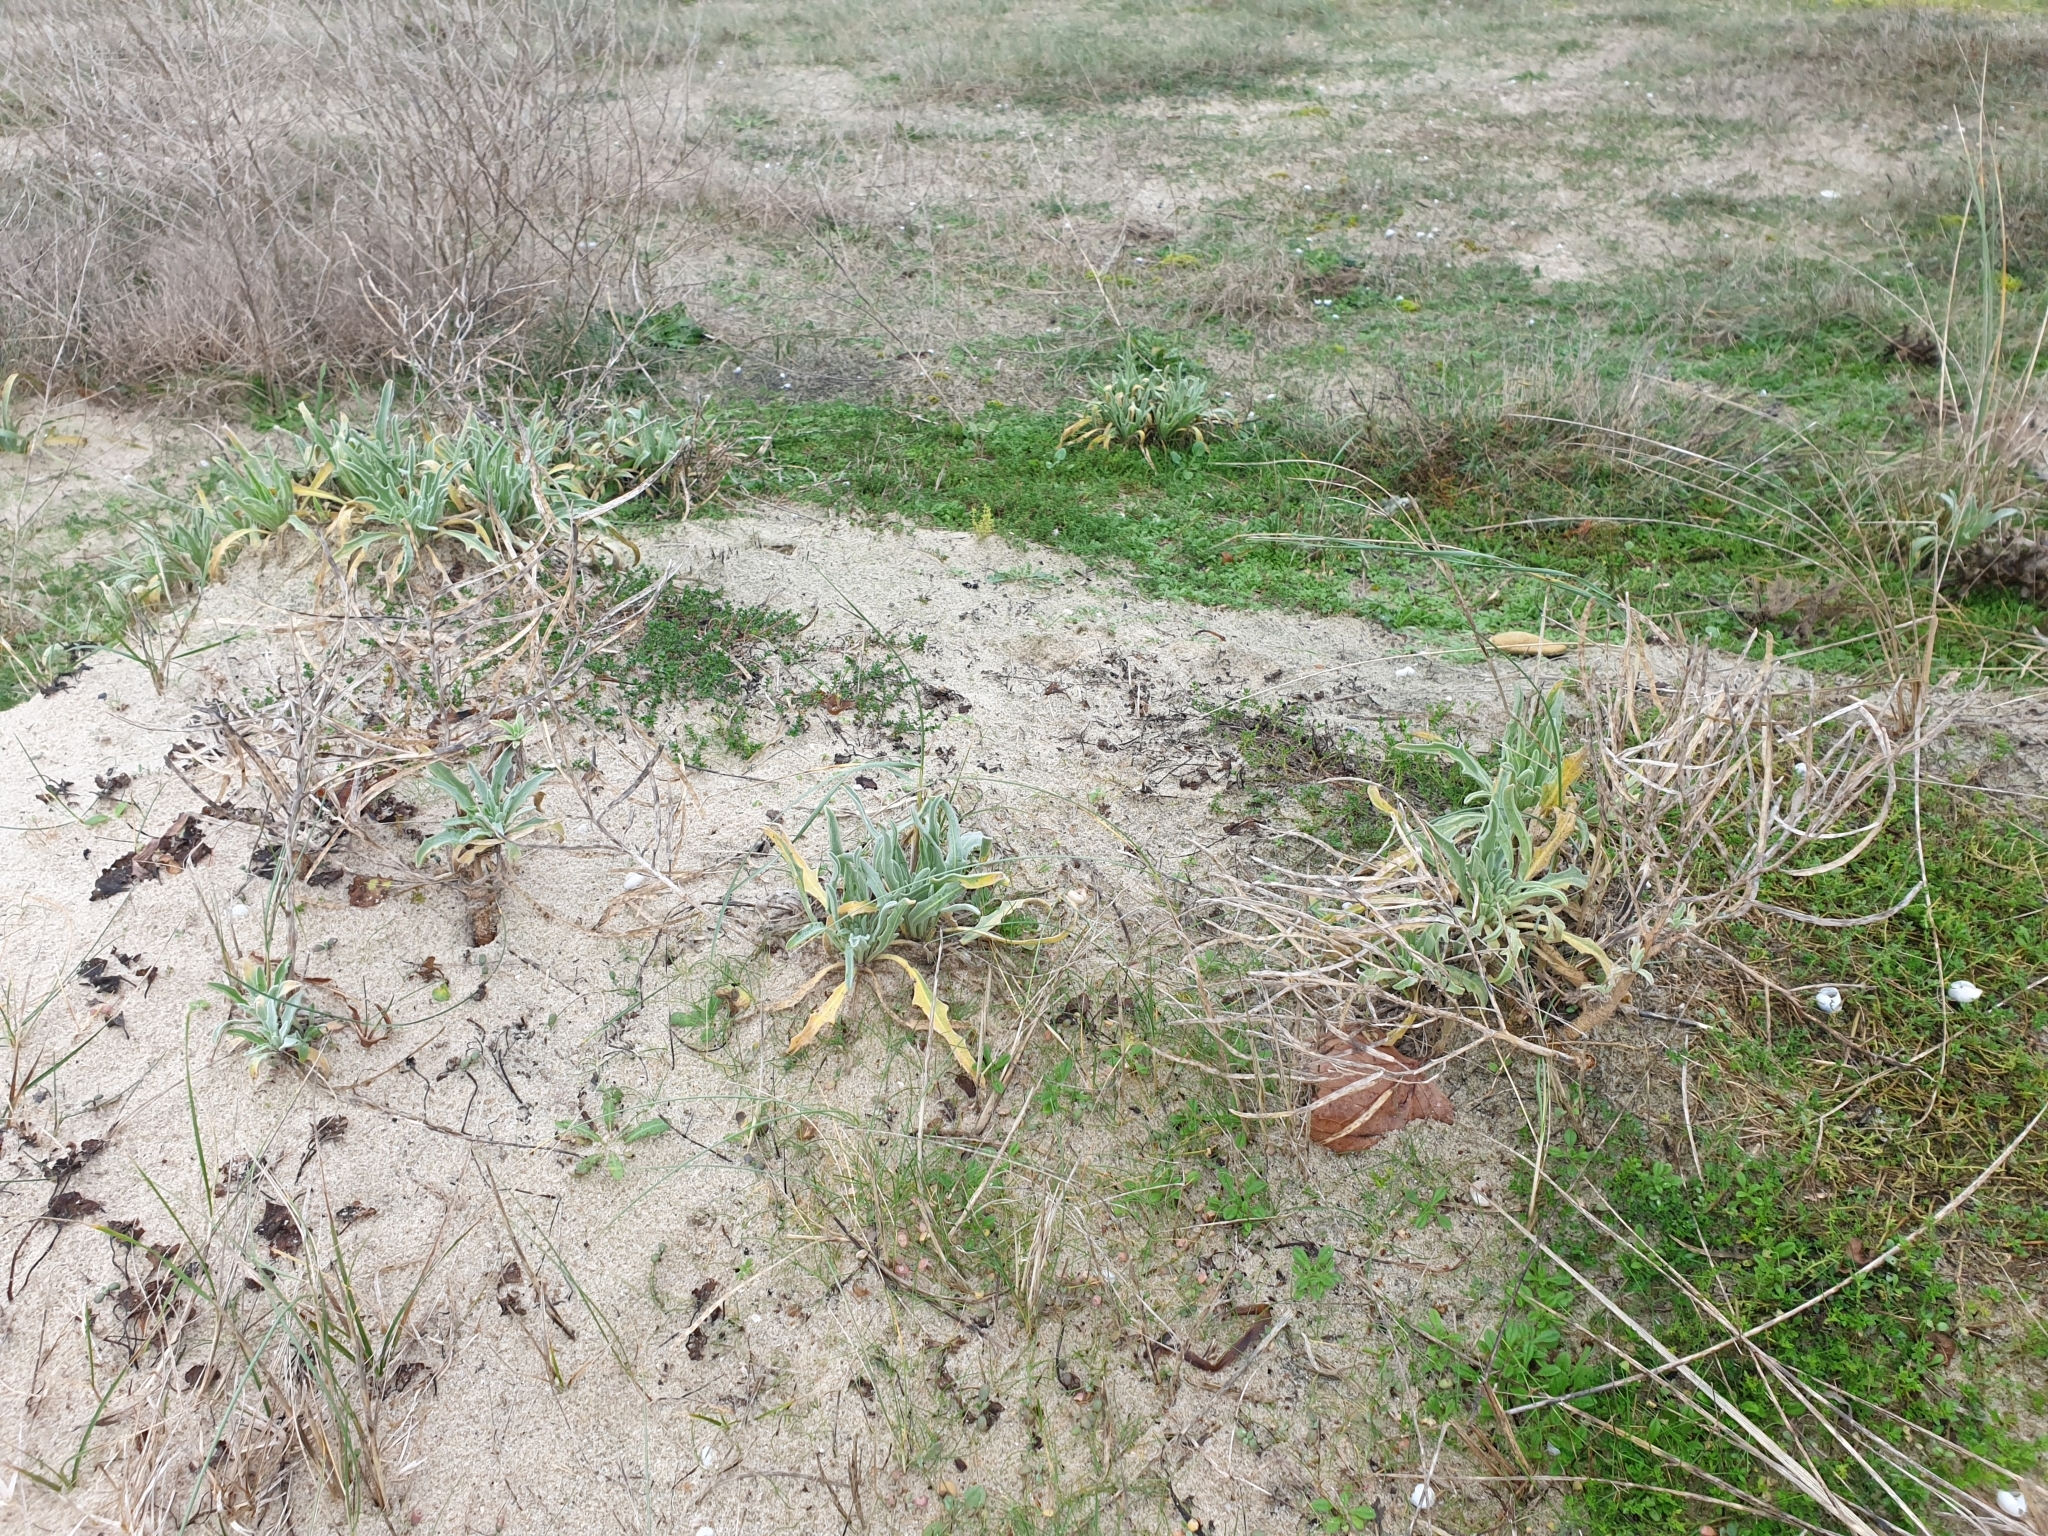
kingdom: Plantae
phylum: Tracheophyta
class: Magnoliopsida
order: Brassicales
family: Brassicaceae
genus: Matthiola
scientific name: Matthiola sinuata
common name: Sea stock
